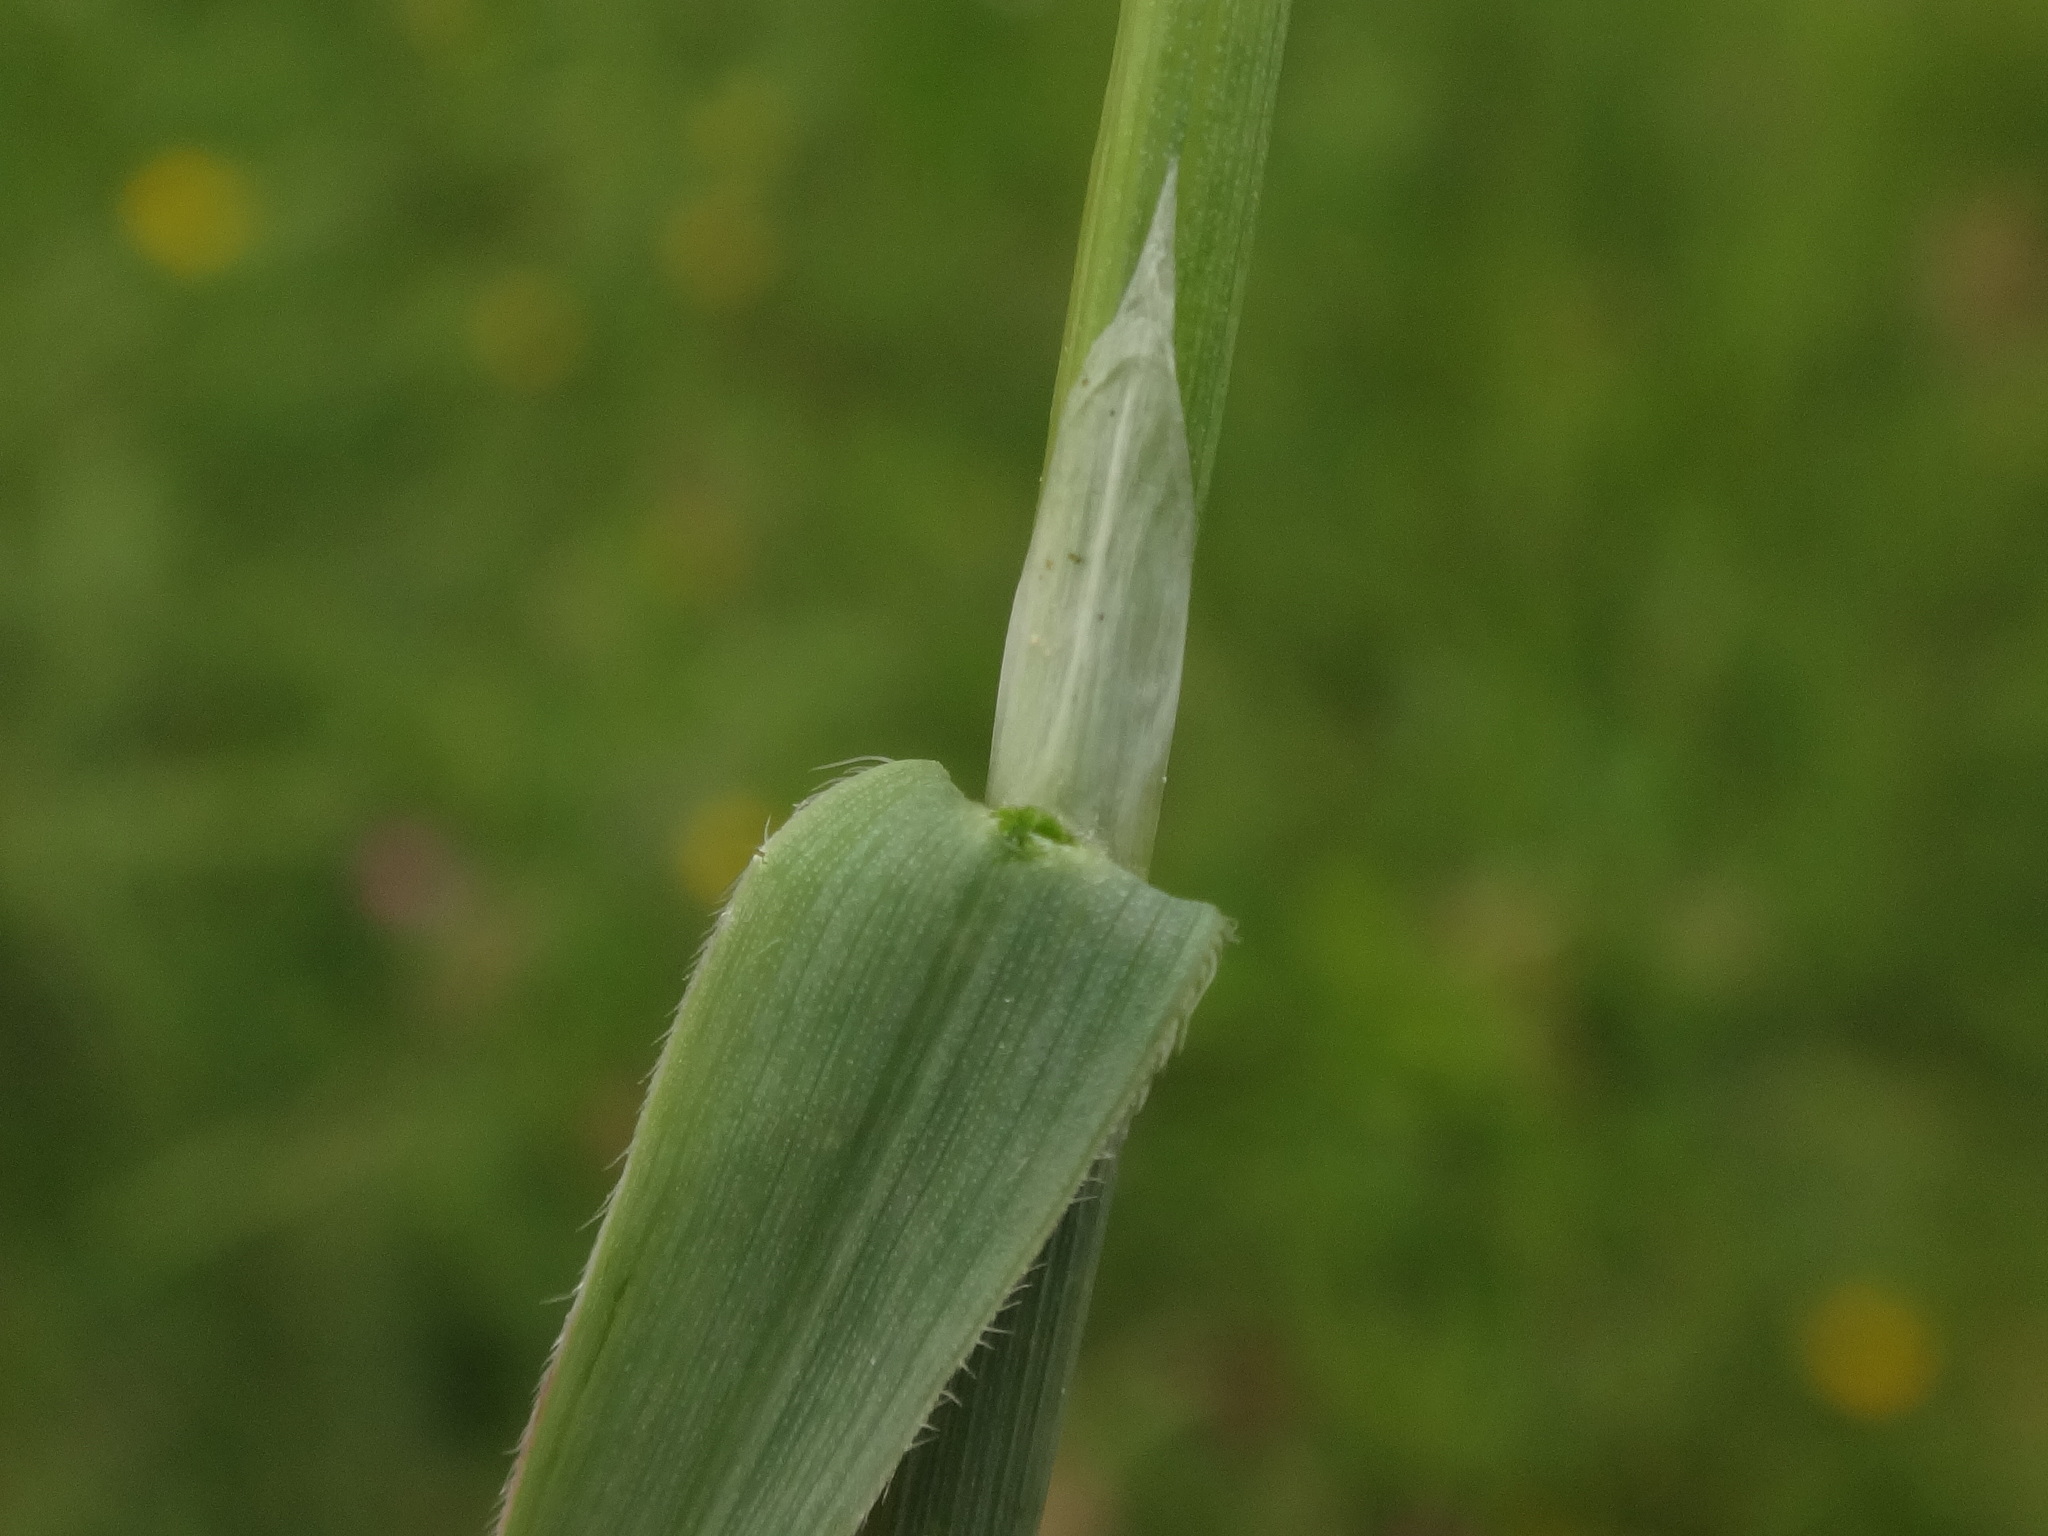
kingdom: Plantae
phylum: Tracheophyta
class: Liliopsida
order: Poales
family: Poaceae
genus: Avenula
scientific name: Avenula pubescens
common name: Downy alpine oatgrass
